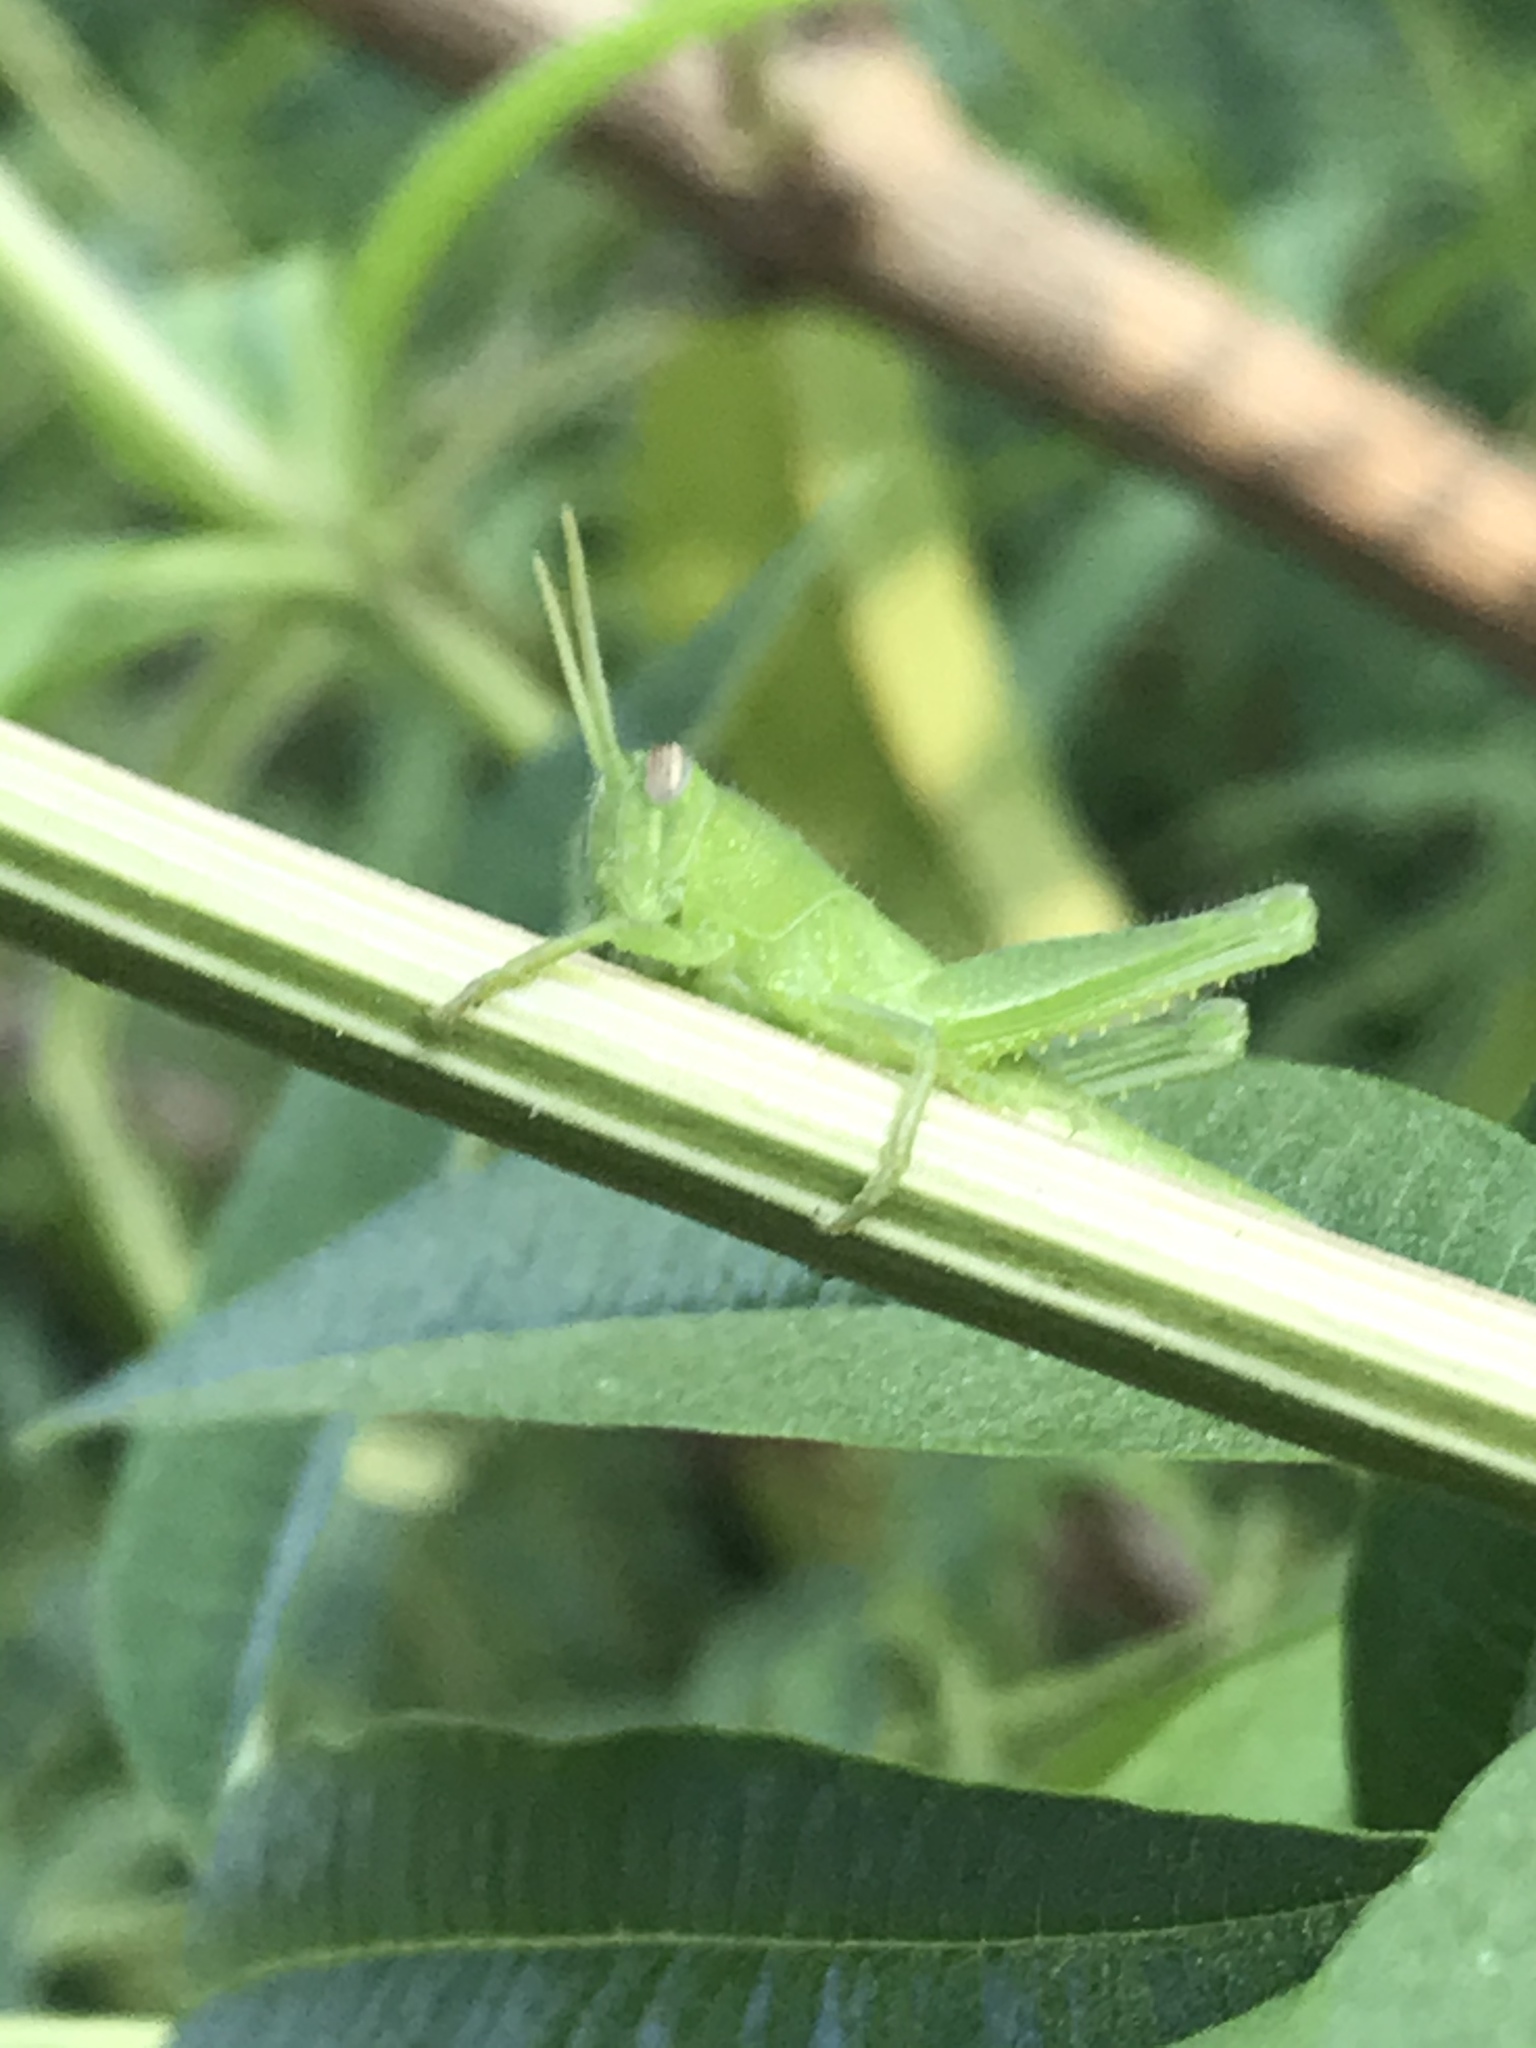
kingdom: Animalia
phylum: Arthropoda
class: Insecta
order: Orthoptera
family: Acrididae
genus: Schistocerca
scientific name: Schistocerca nitens
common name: Vagrant grasshopper
